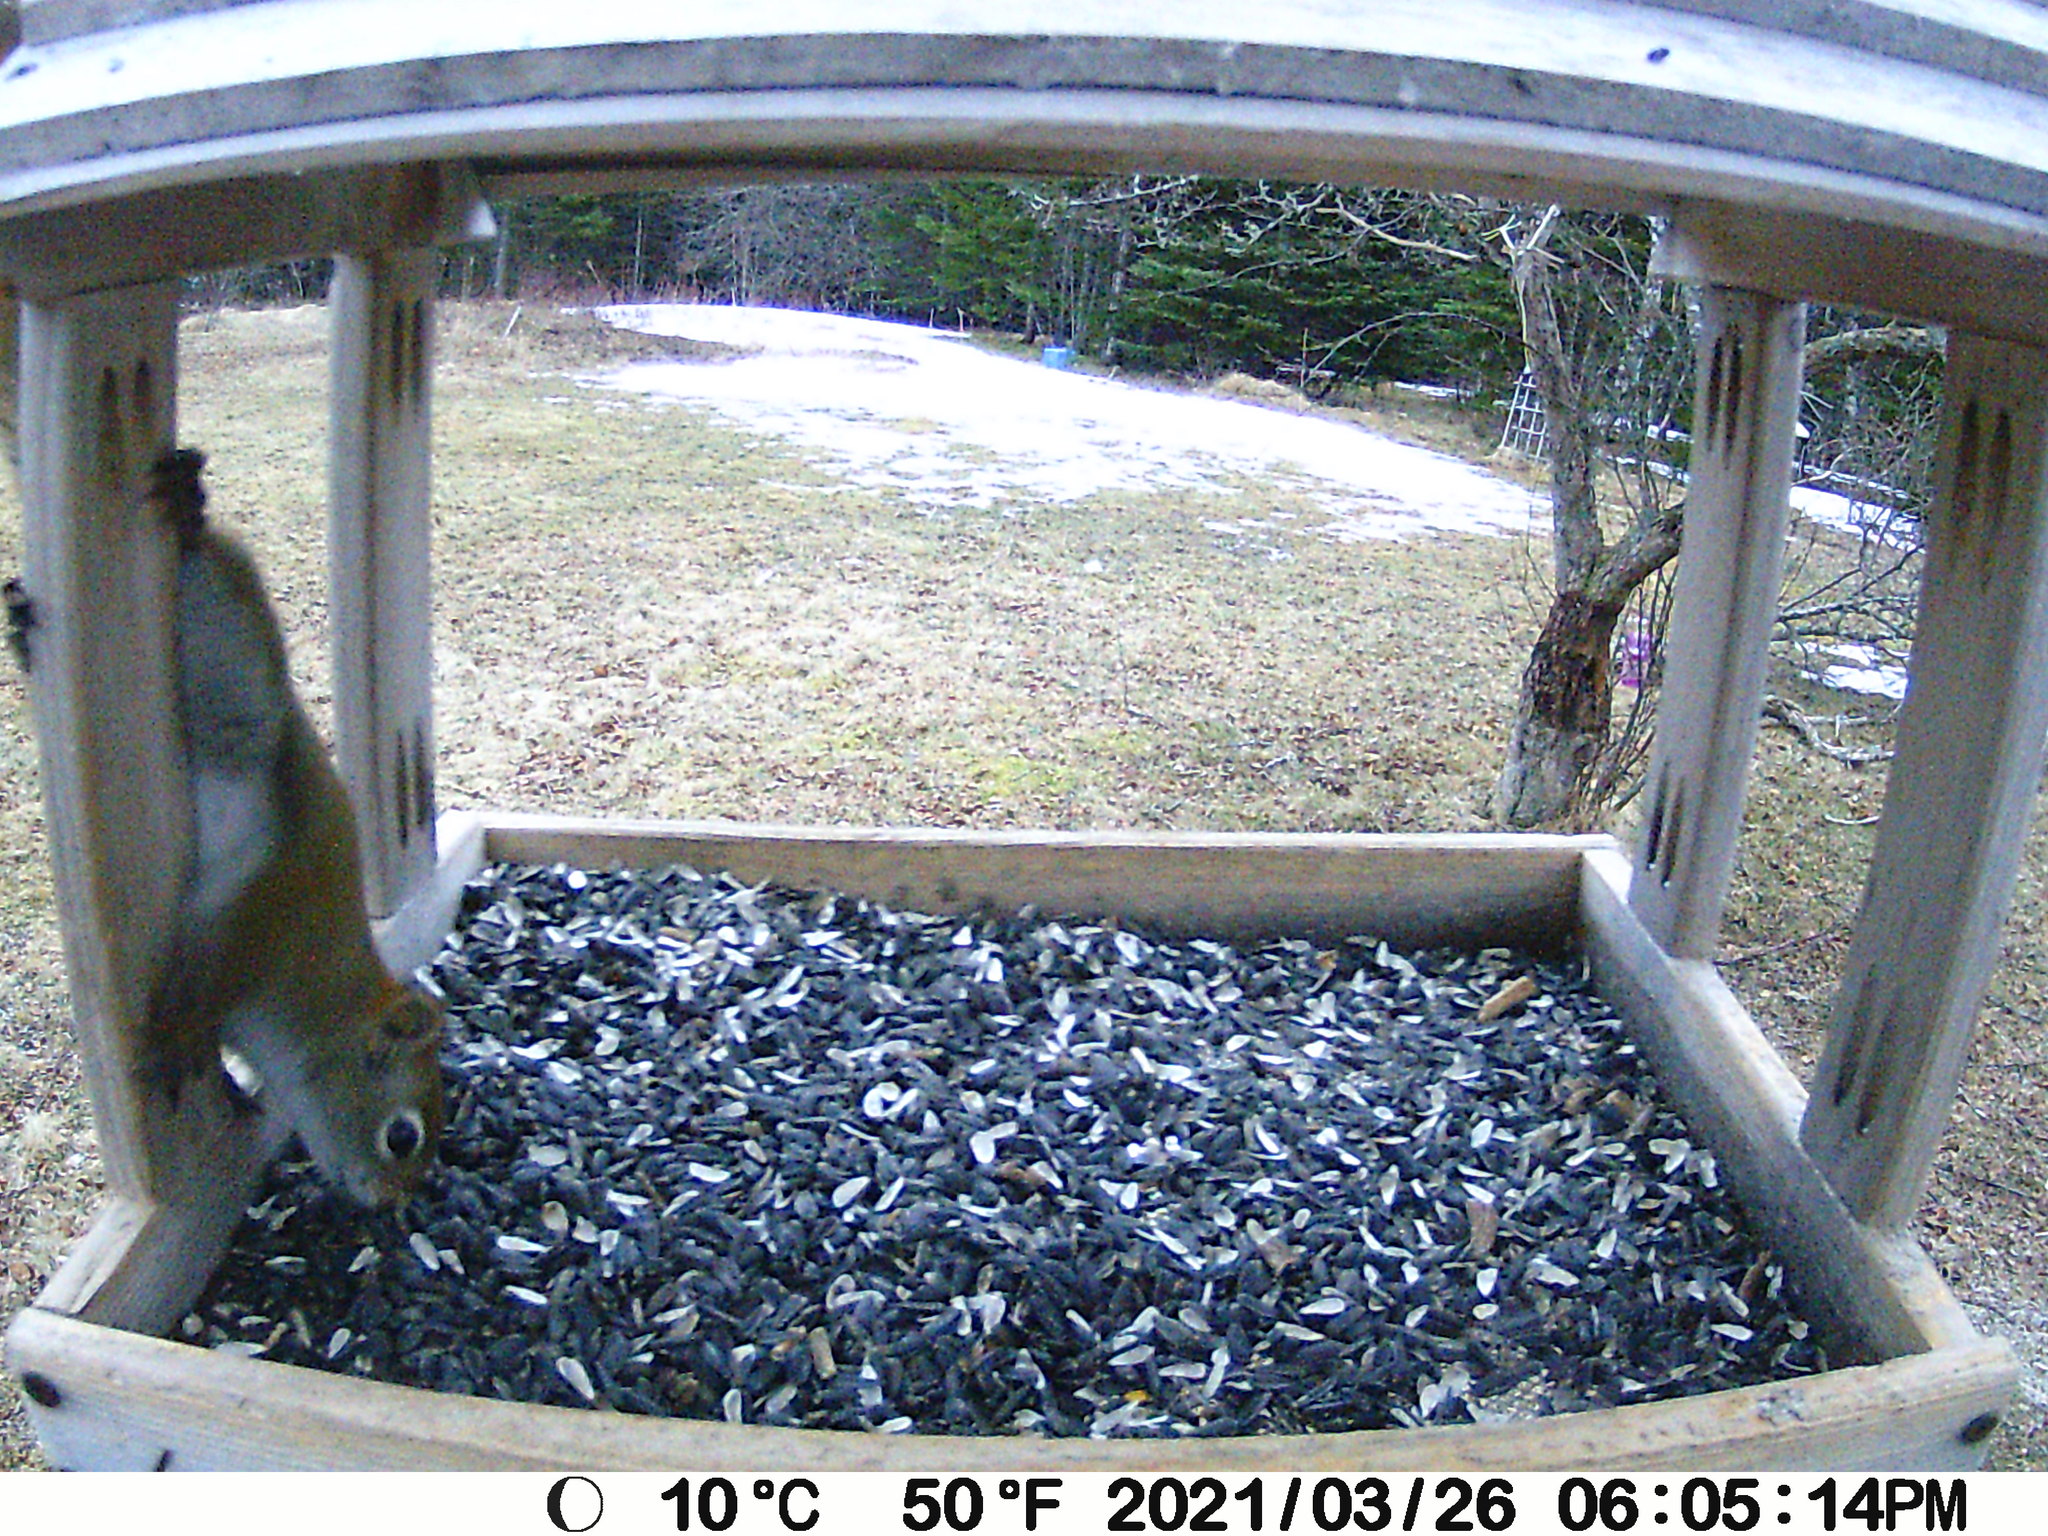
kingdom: Animalia
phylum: Chordata
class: Mammalia
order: Rodentia
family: Sciuridae
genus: Tamiasciurus
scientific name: Tamiasciurus hudsonicus
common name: Red squirrel
